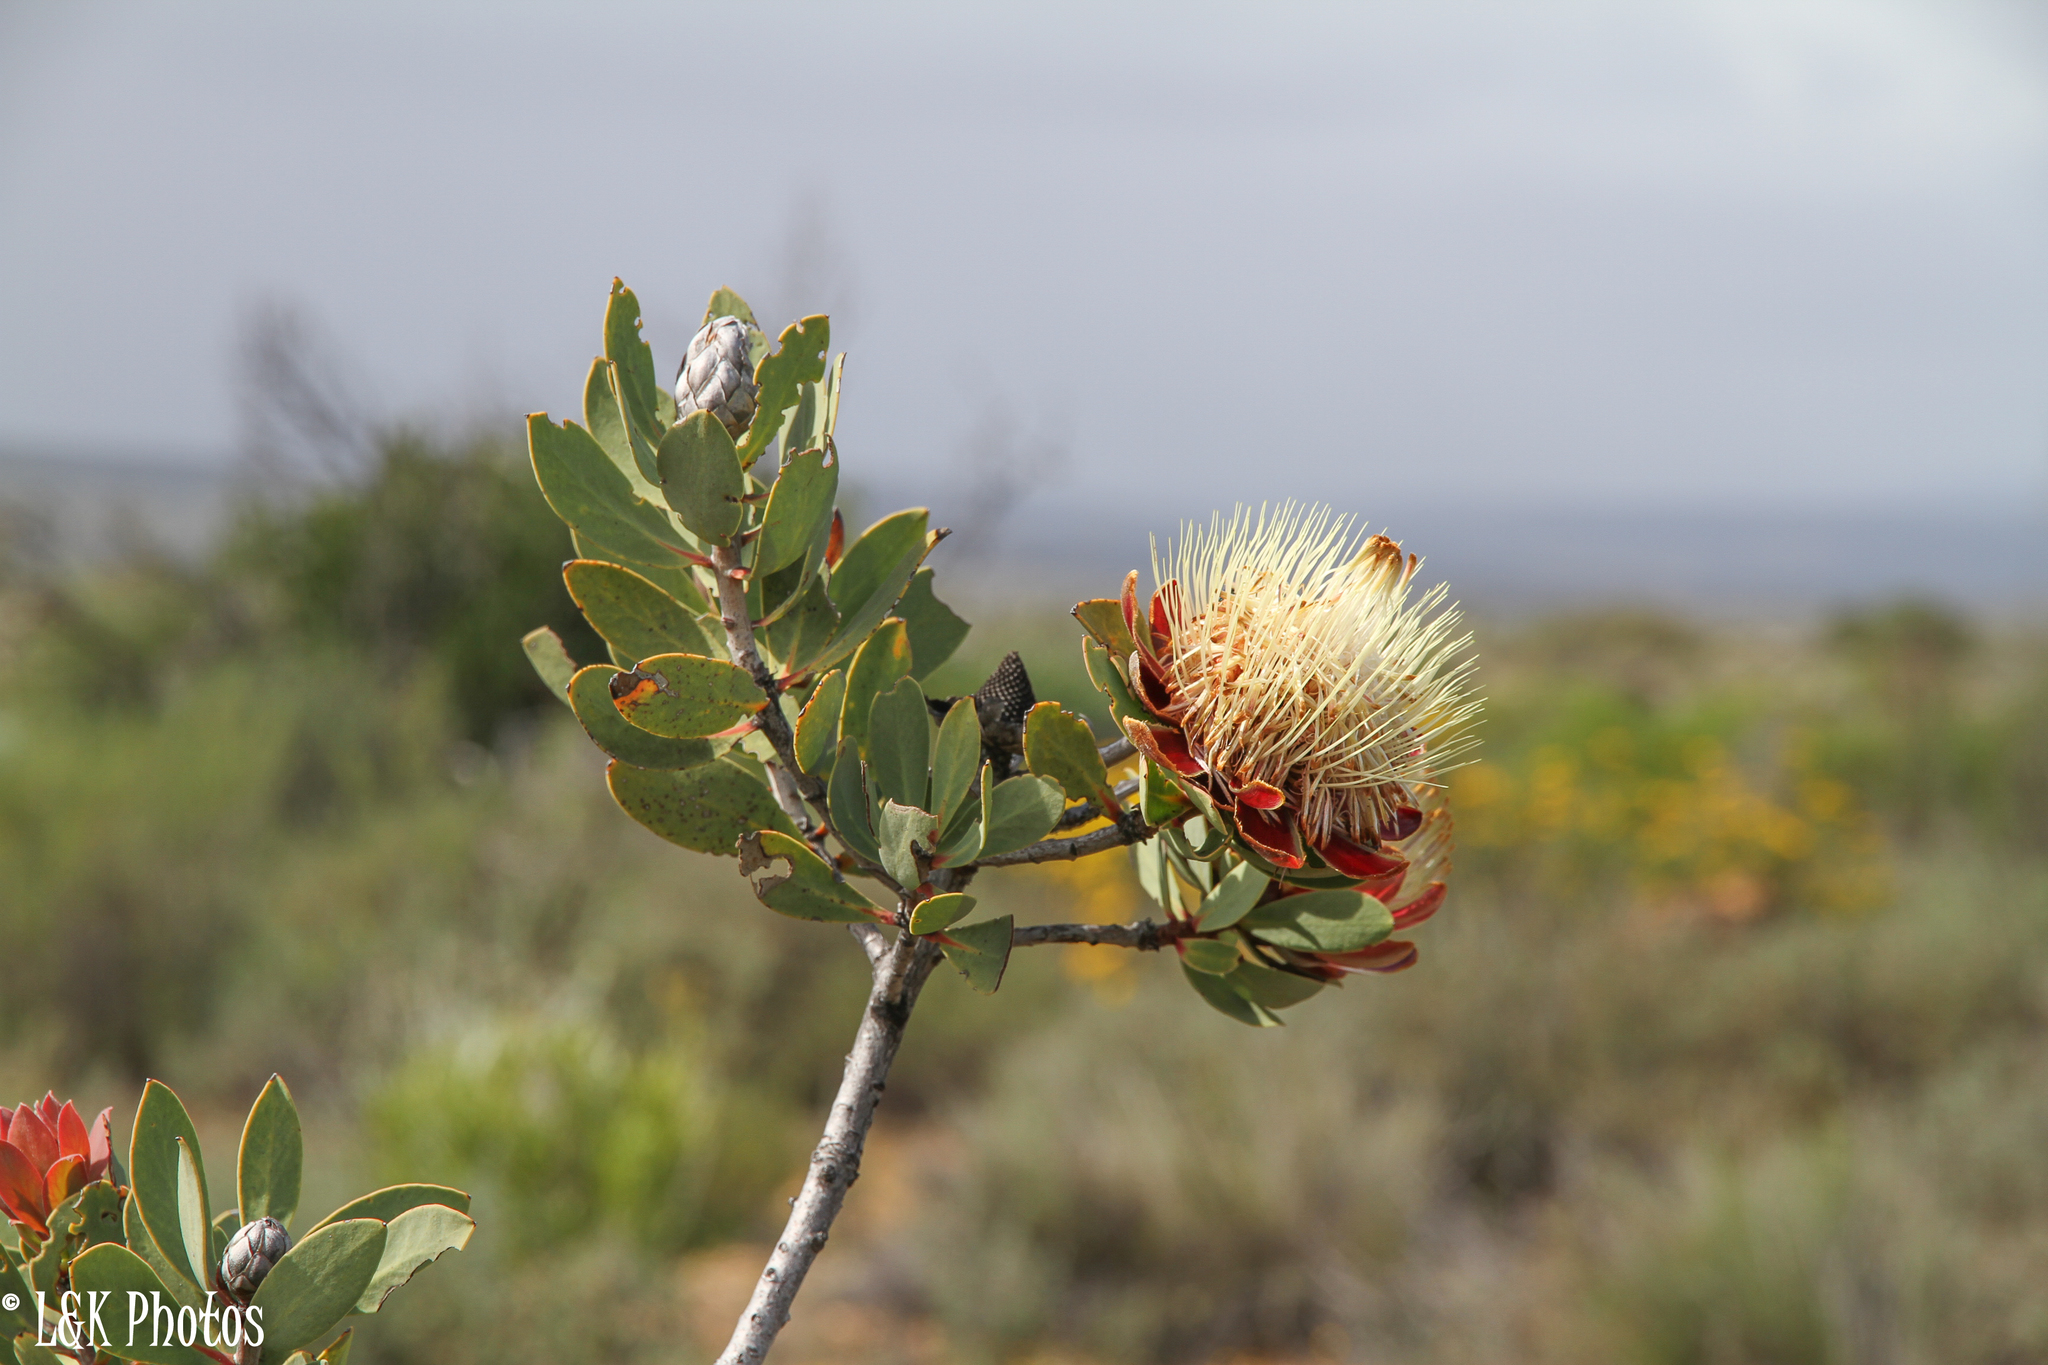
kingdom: Plantae
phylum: Tracheophyta
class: Magnoliopsida
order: Proteales
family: Proteaceae
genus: Protea
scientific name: Protea glabra
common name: Chestnut sugarbush
